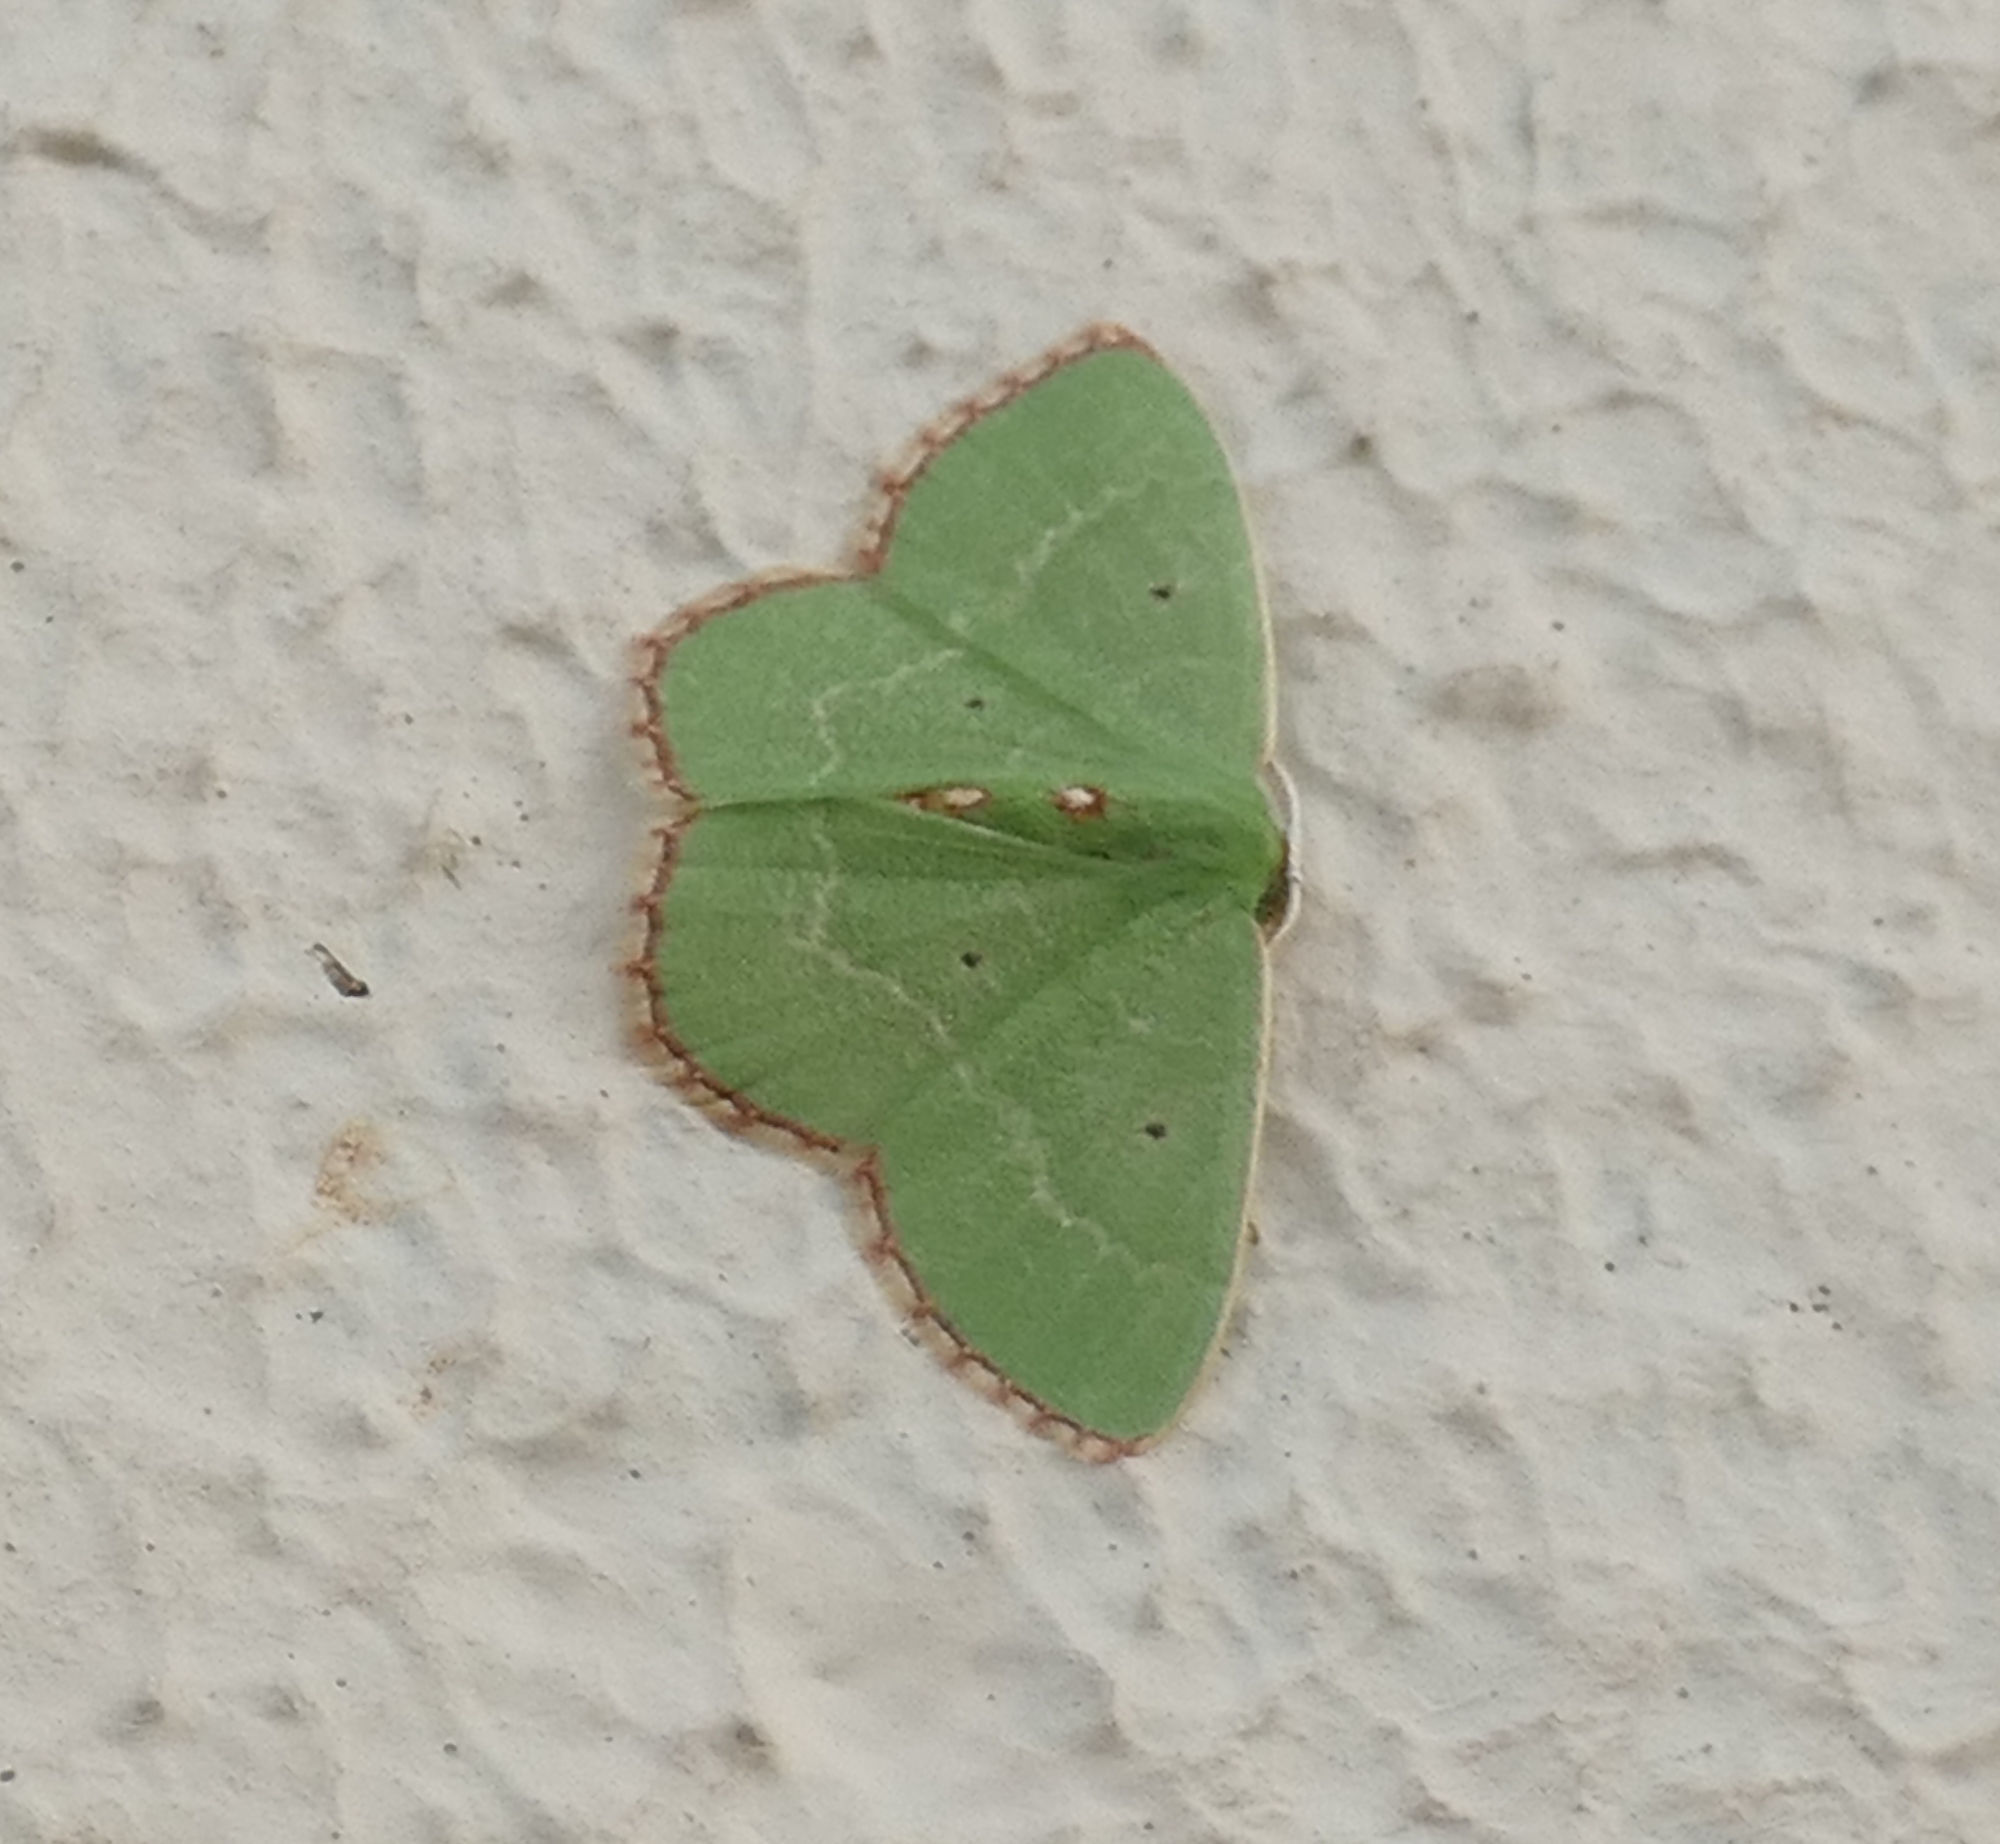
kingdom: Animalia
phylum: Arthropoda
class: Insecta
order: Lepidoptera
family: Geometridae
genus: Nemoria
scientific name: Nemoria lixaria
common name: Red-bordered emerald
